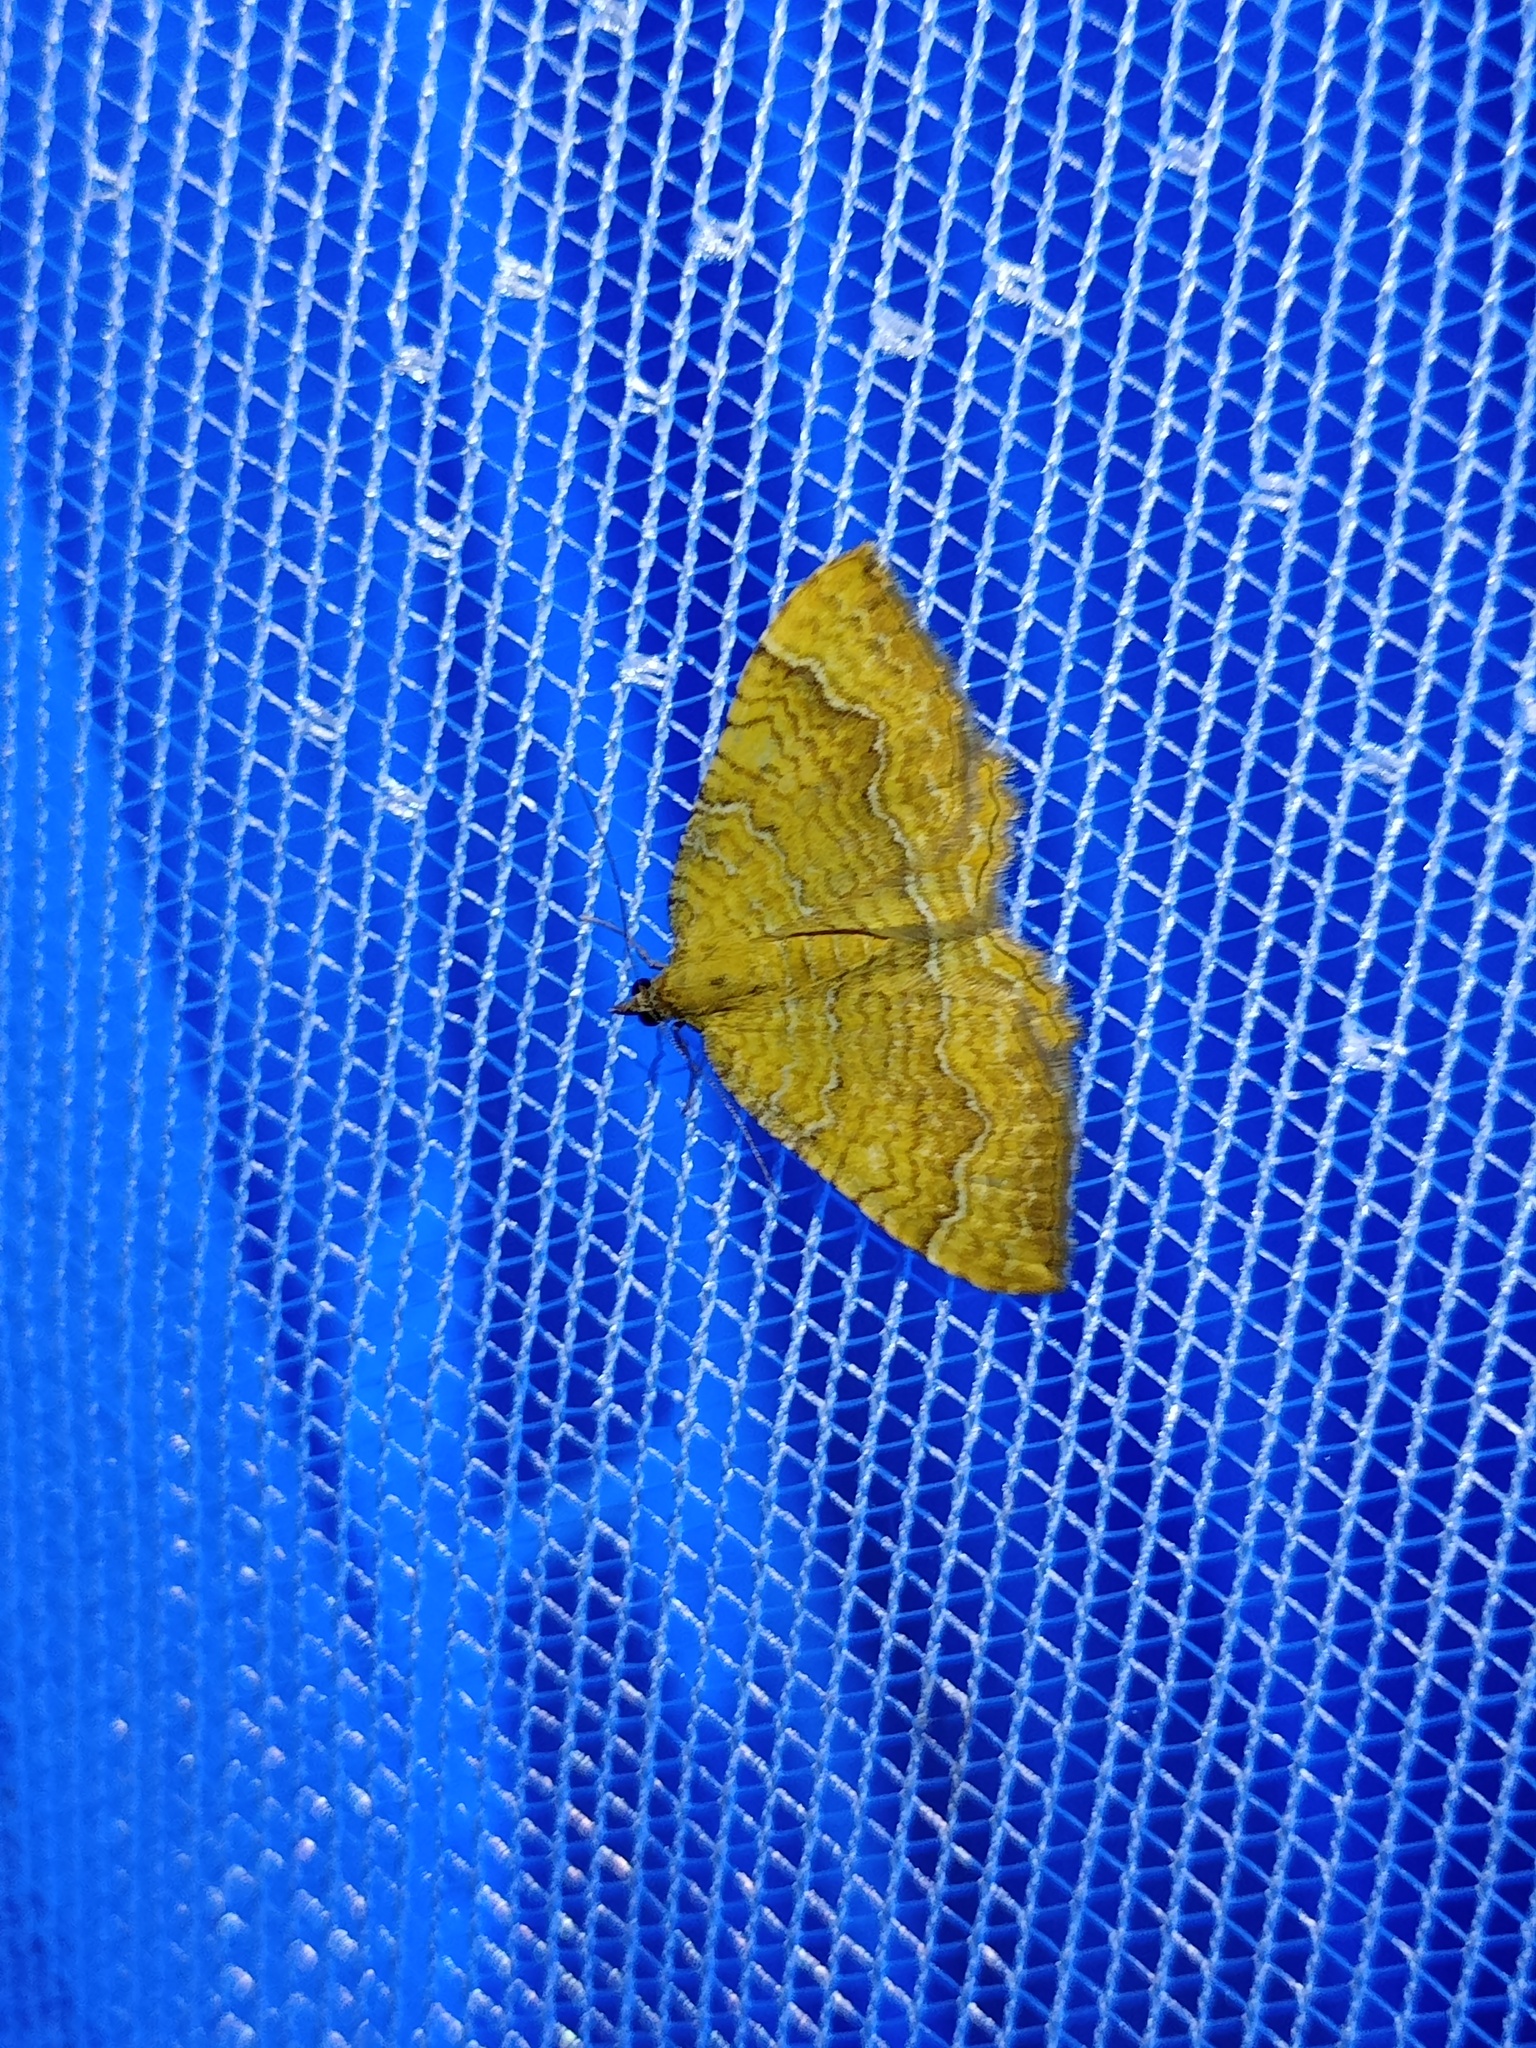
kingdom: Animalia
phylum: Arthropoda
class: Insecta
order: Lepidoptera
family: Geometridae
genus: Camptogramma
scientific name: Camptogramma bilineata
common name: Yellow shell
